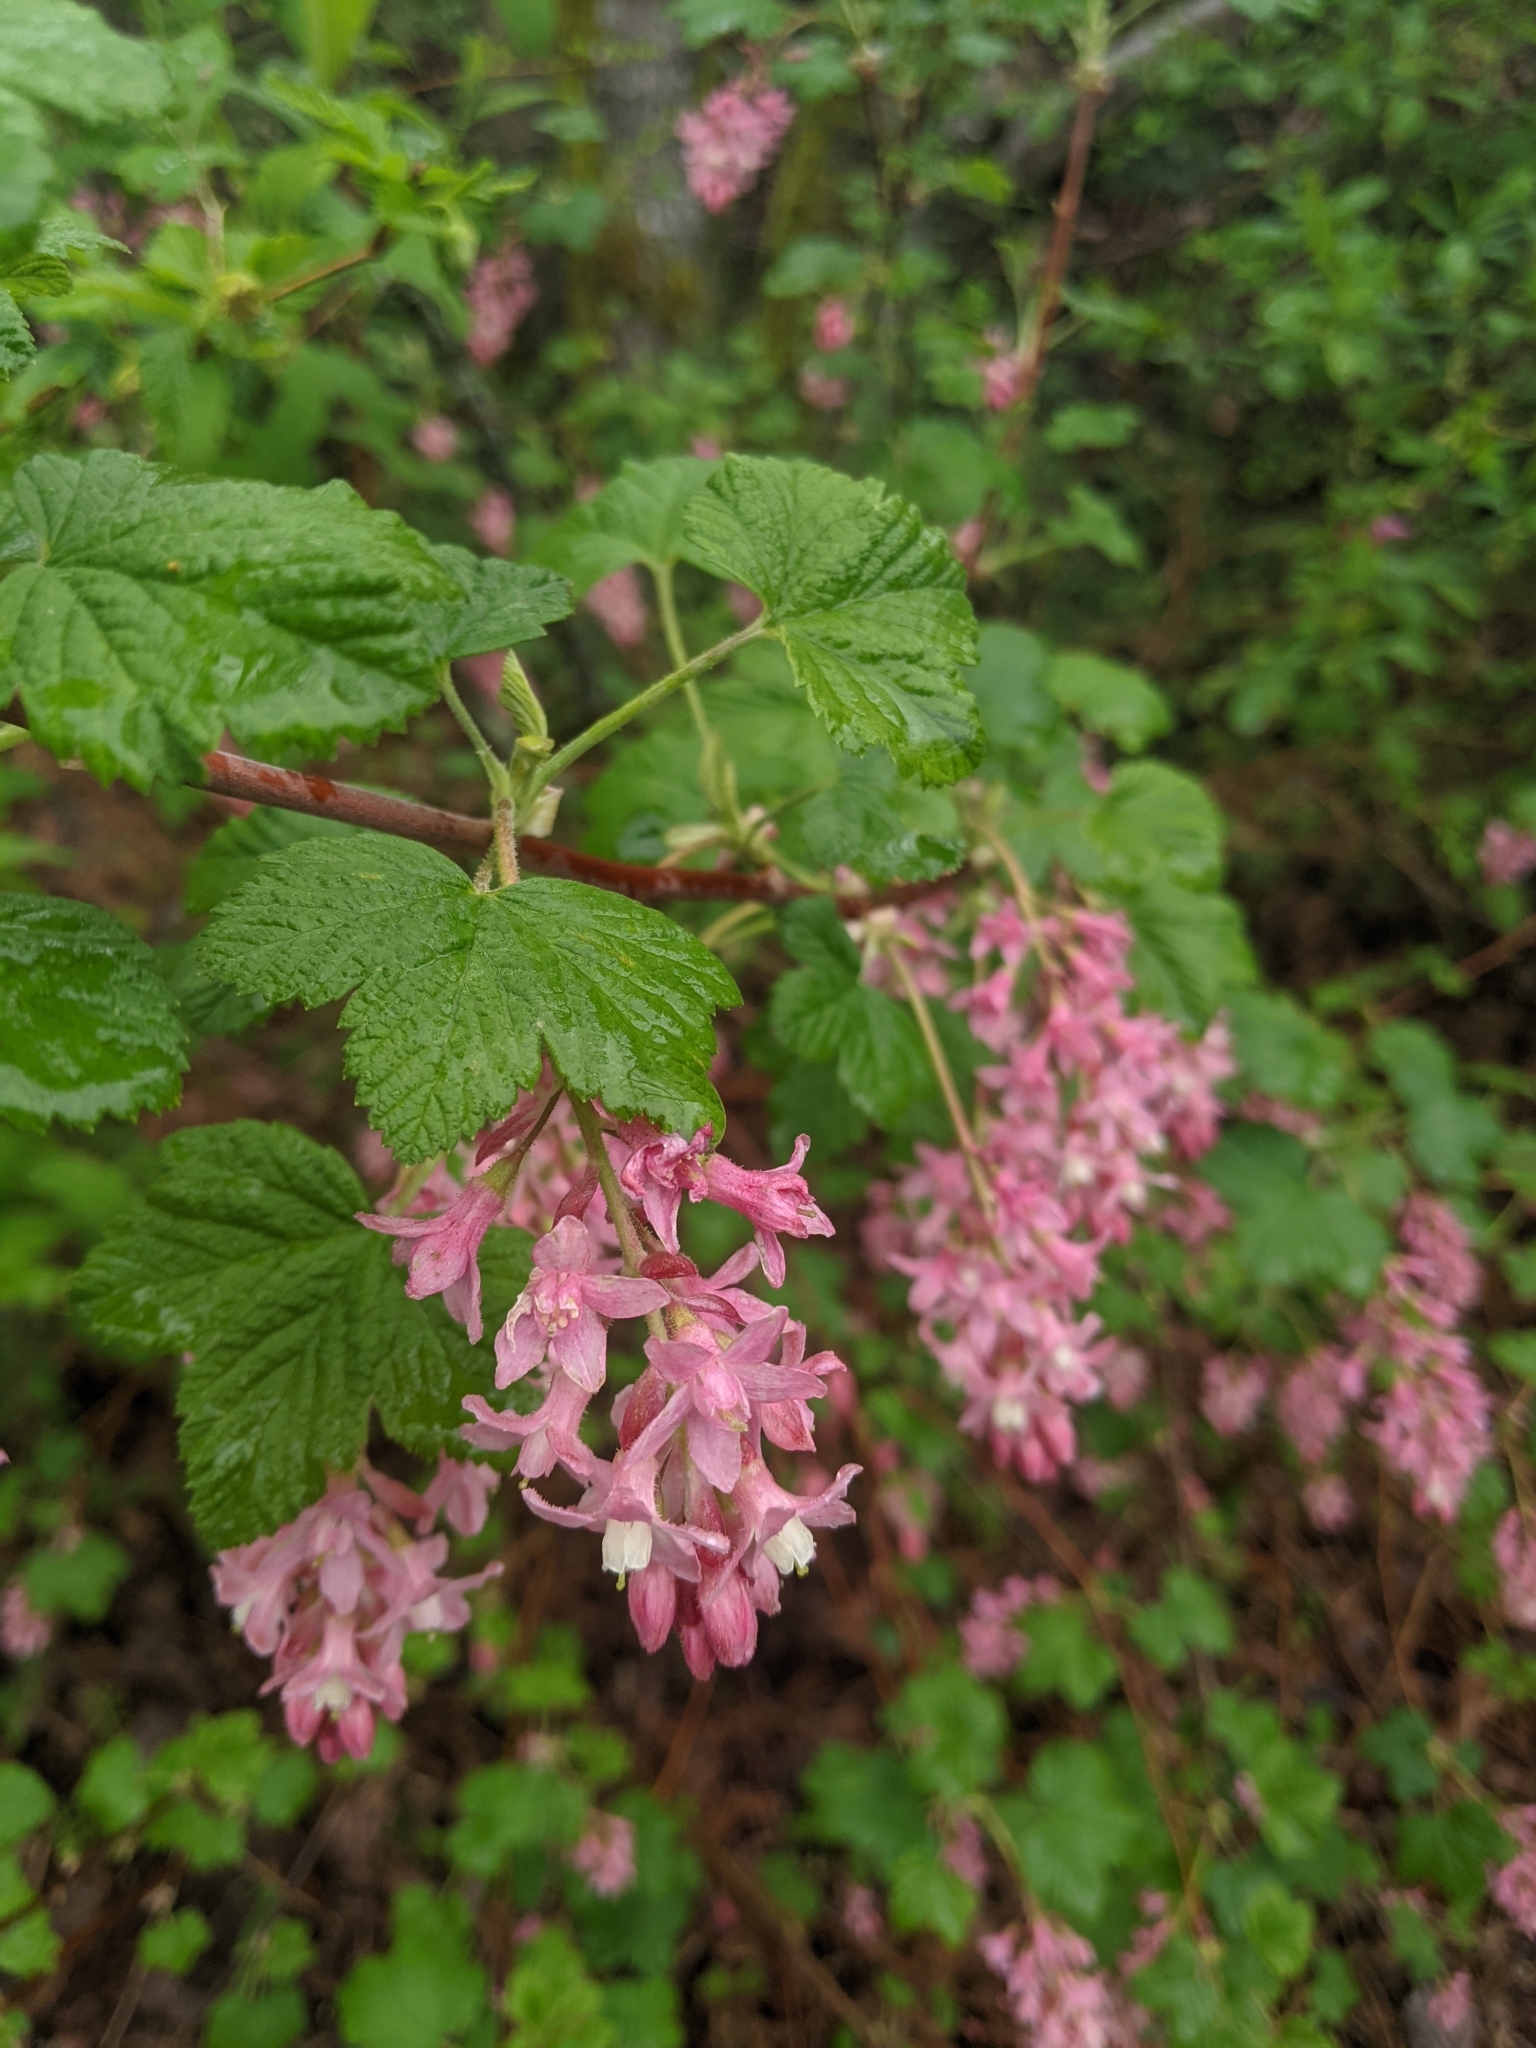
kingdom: Plantae
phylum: Tracheophyta
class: Magnoliopsida
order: Saxifragales
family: Grossulariaceae
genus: Ribes
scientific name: Ribes sanguineum
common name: Flowering currant
